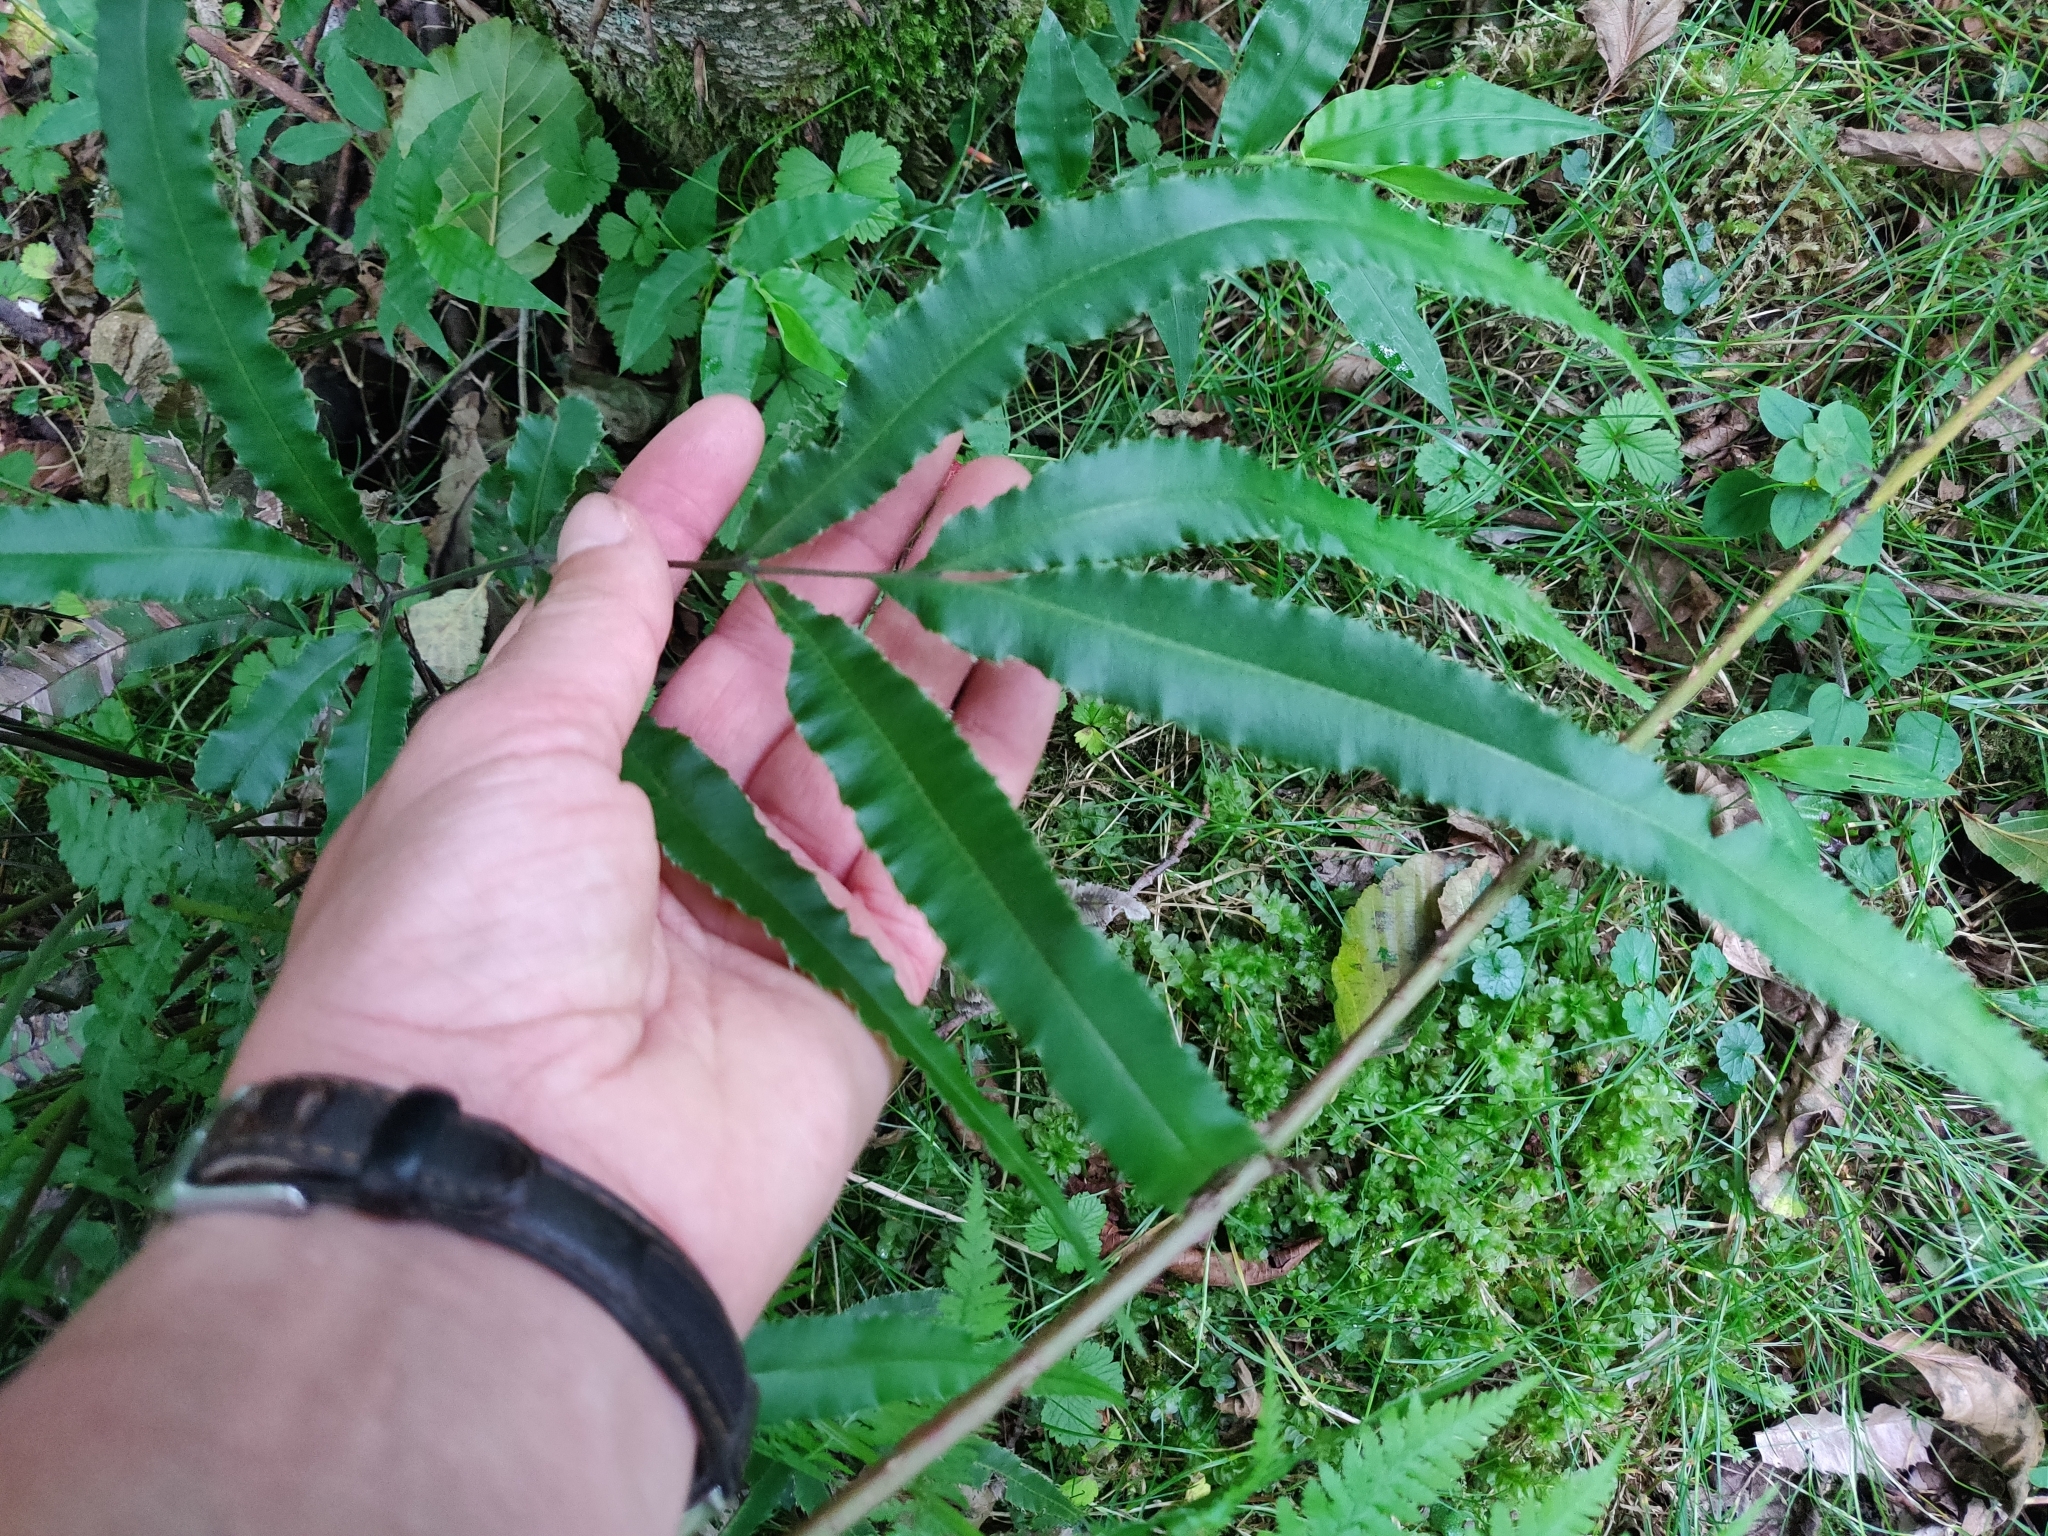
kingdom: Plantae
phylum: Tracheophyta
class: Polypodiopsida
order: Polypodiales
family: Pteridaceae
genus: Pteris
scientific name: Pteris cretica
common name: Ribbon fern
